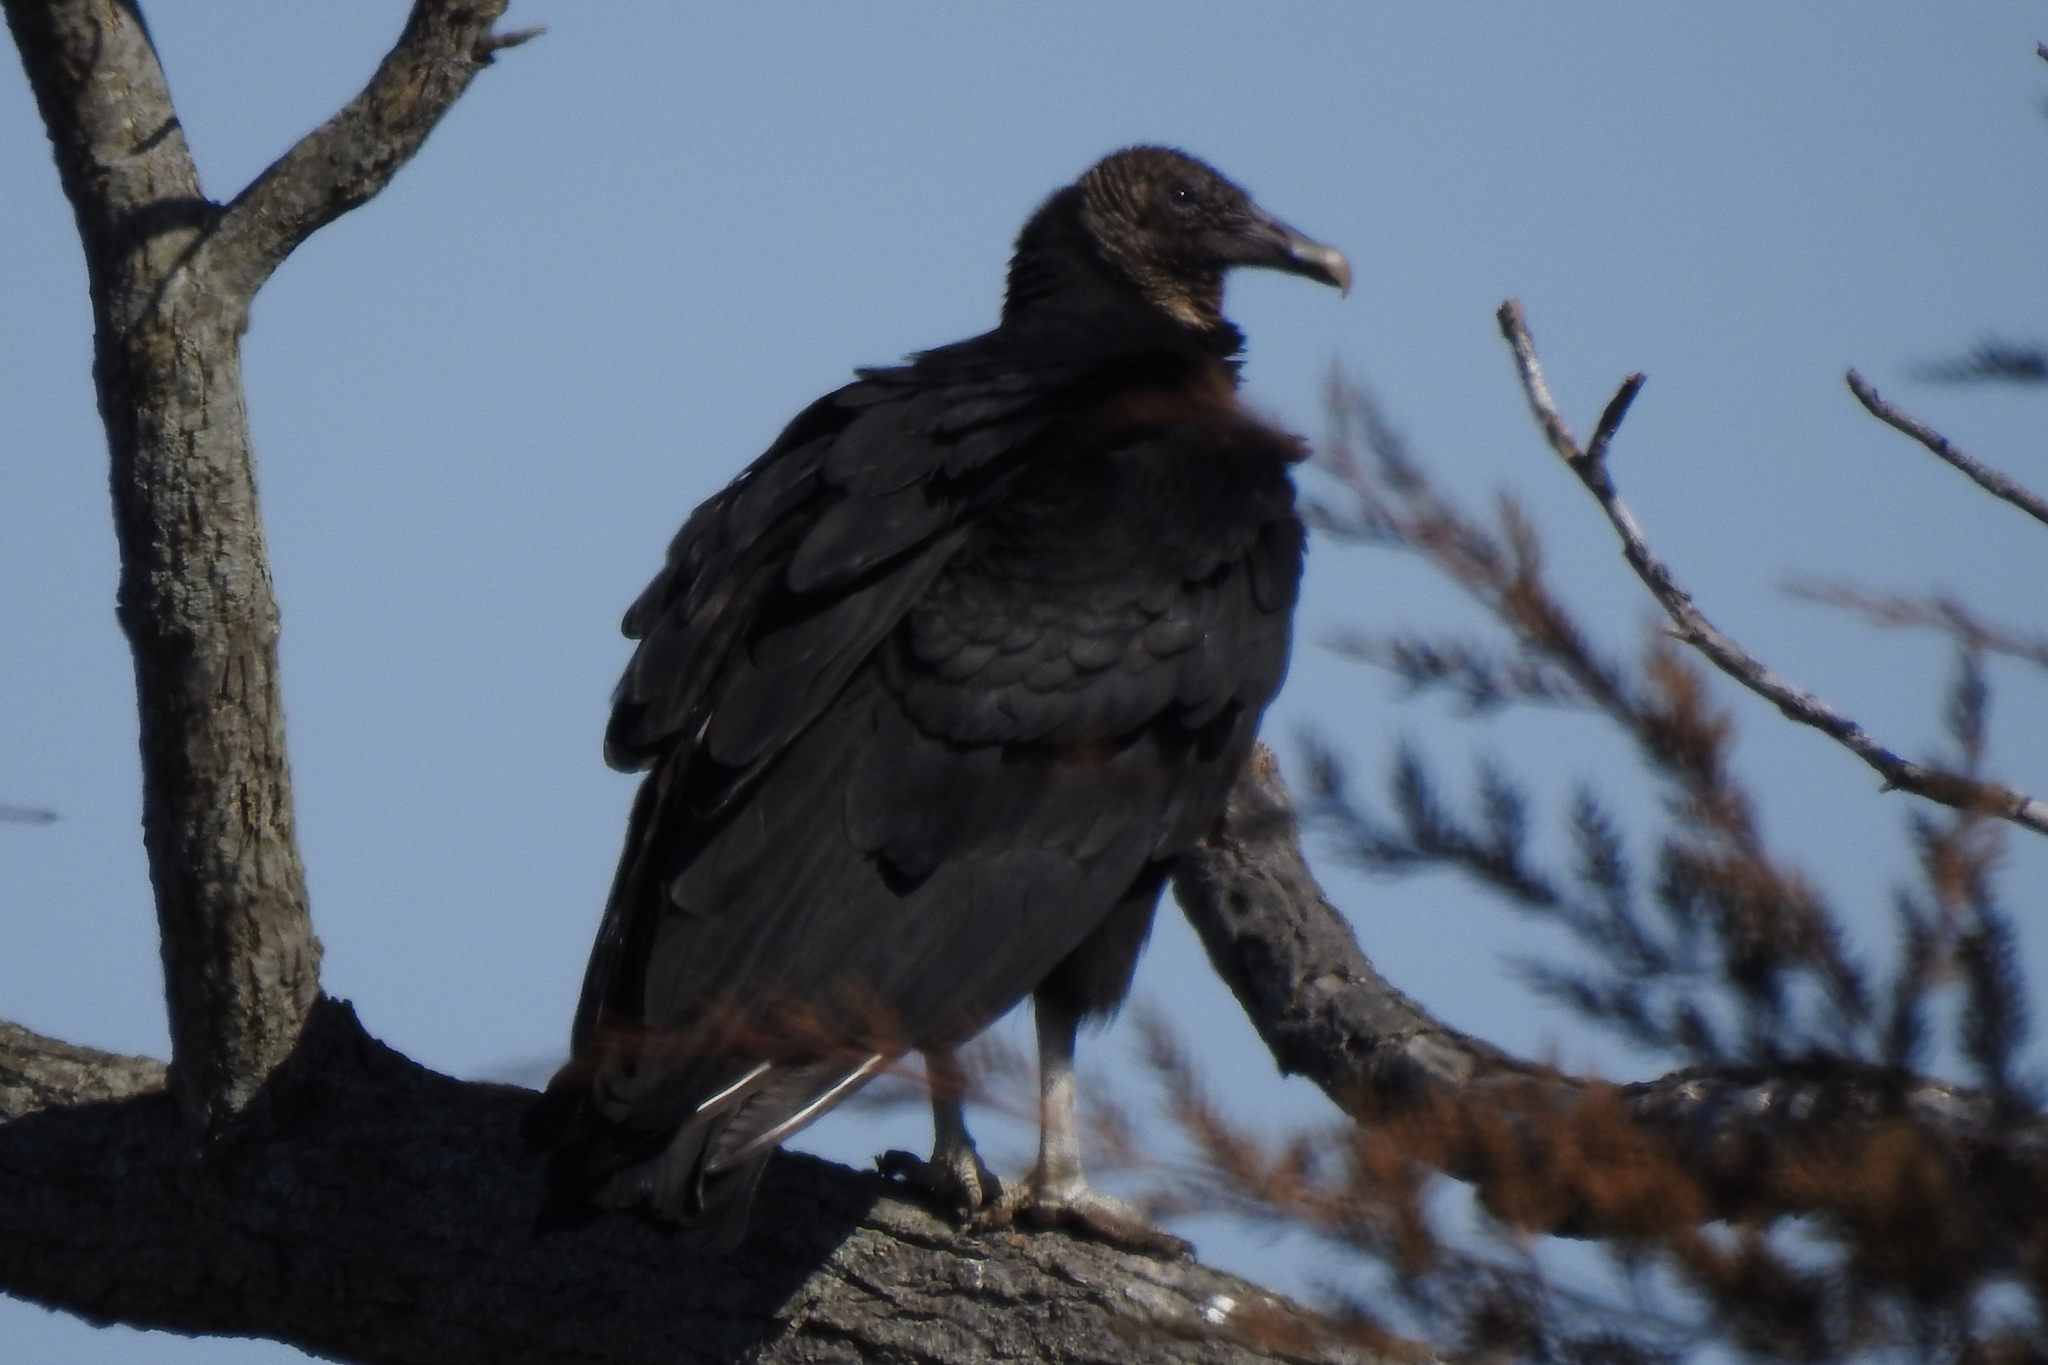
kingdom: Animalia
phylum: Chordata
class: Aves
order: Accipitriformes
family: Cathartidae
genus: Coragyps
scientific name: Coragyps atratus
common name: Black vulture
